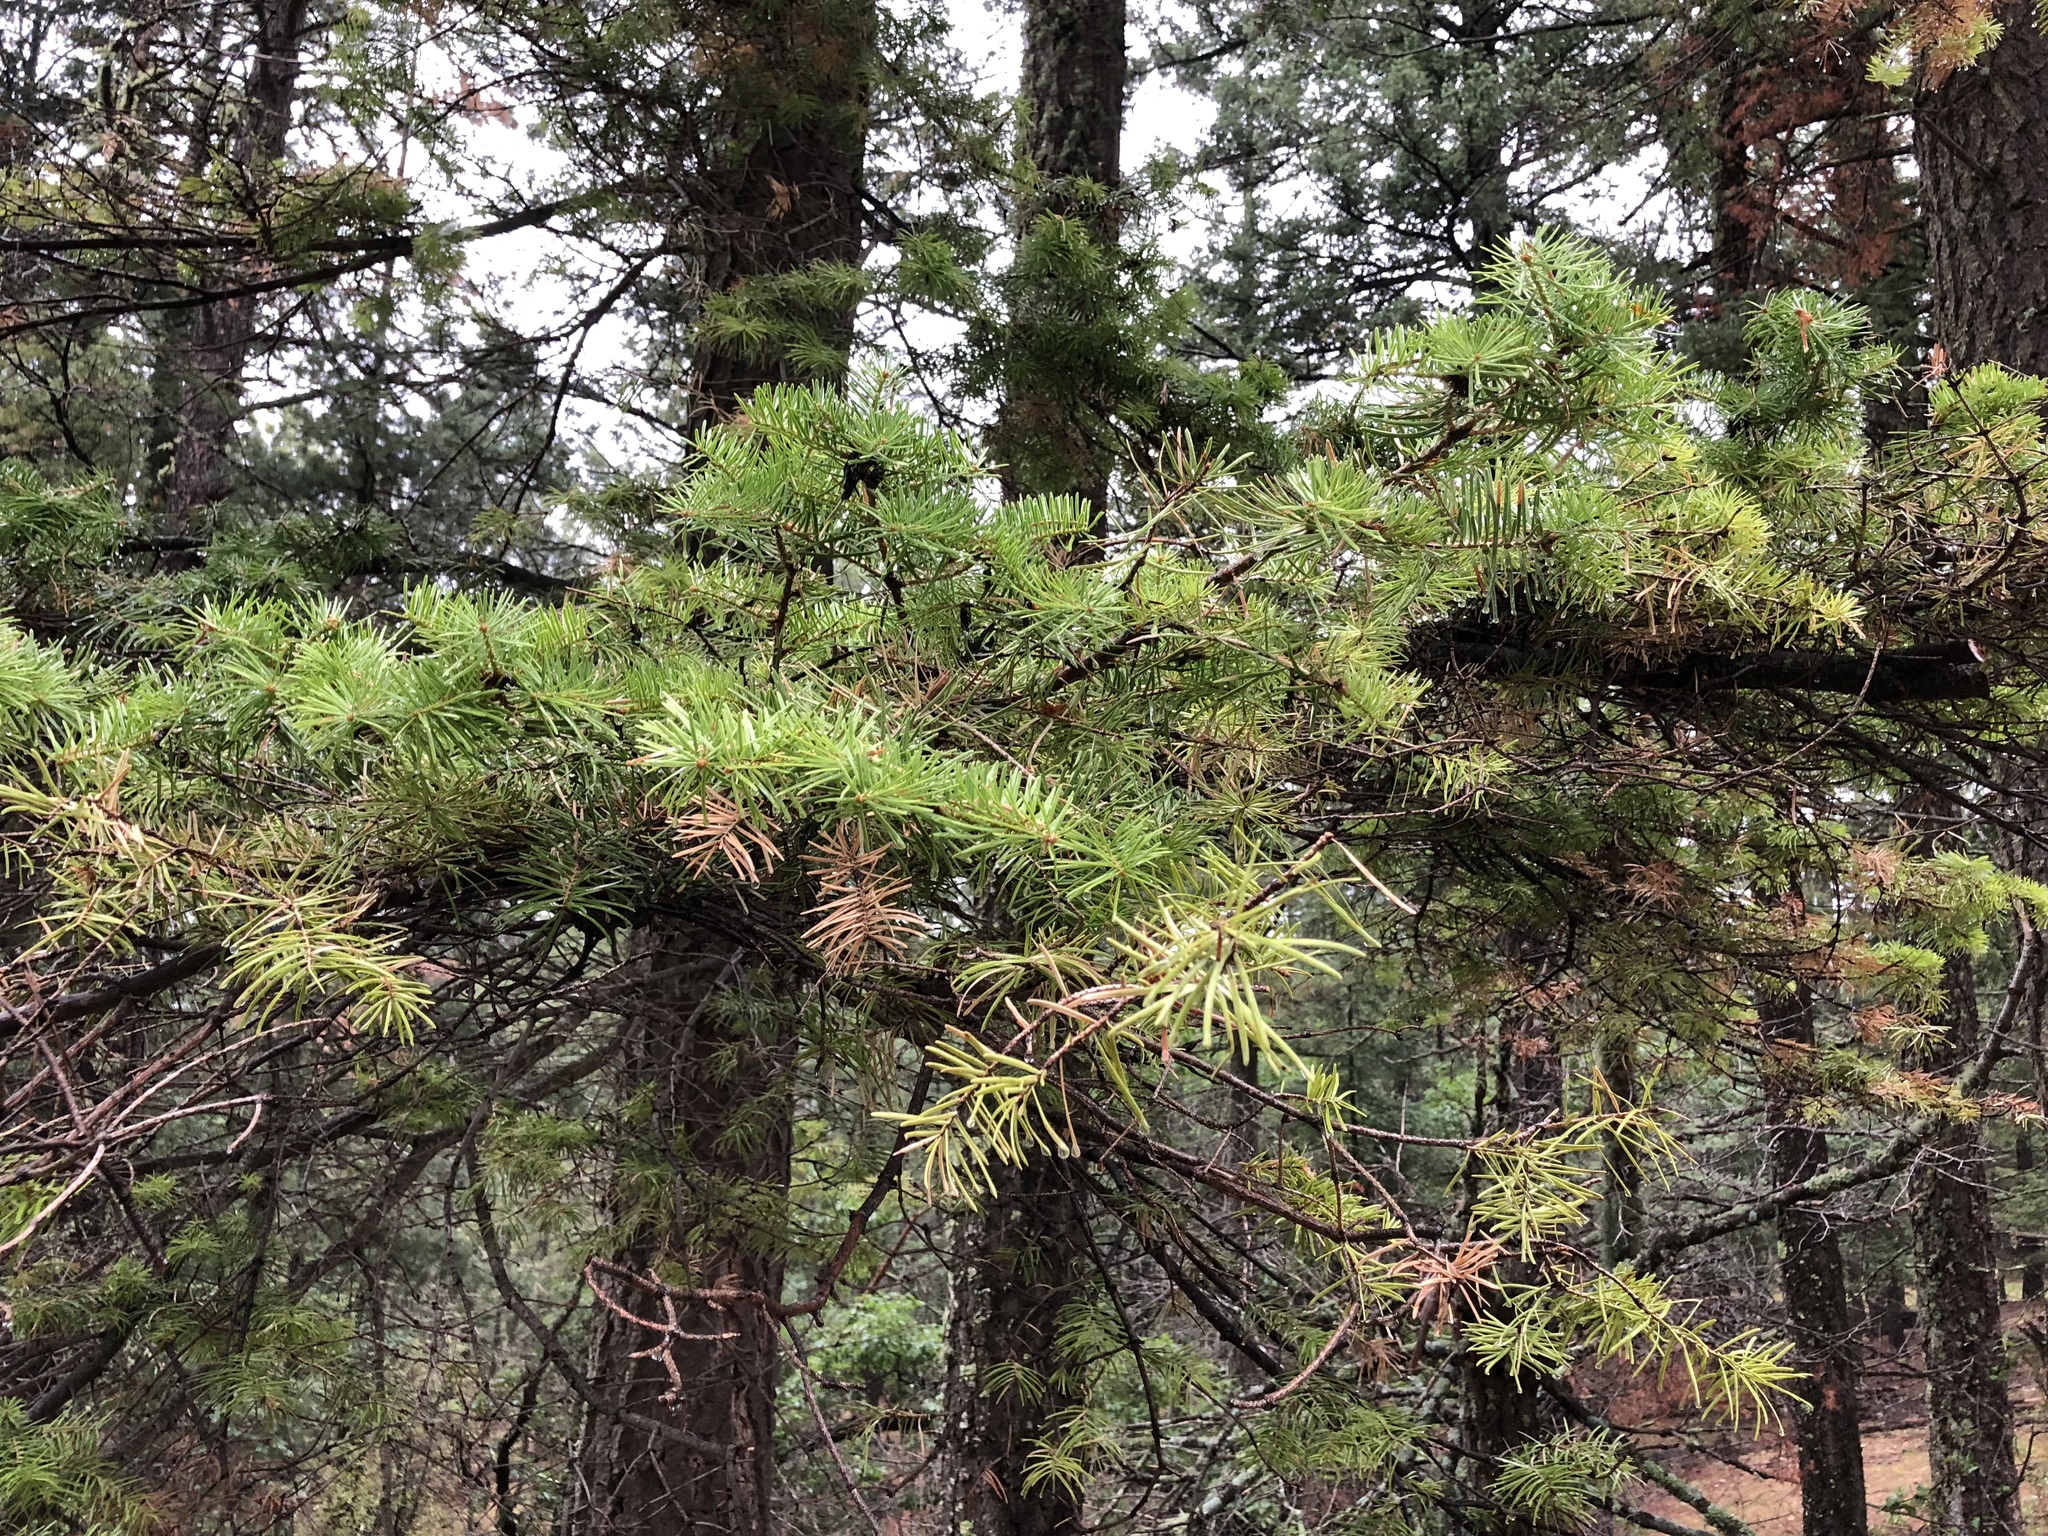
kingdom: Plantae
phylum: Tracheophyta
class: Pinopsida
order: Pinales
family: Pinaceae
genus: Pseudotsuga
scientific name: Pseudotsuga menziesii
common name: Douglas fir
